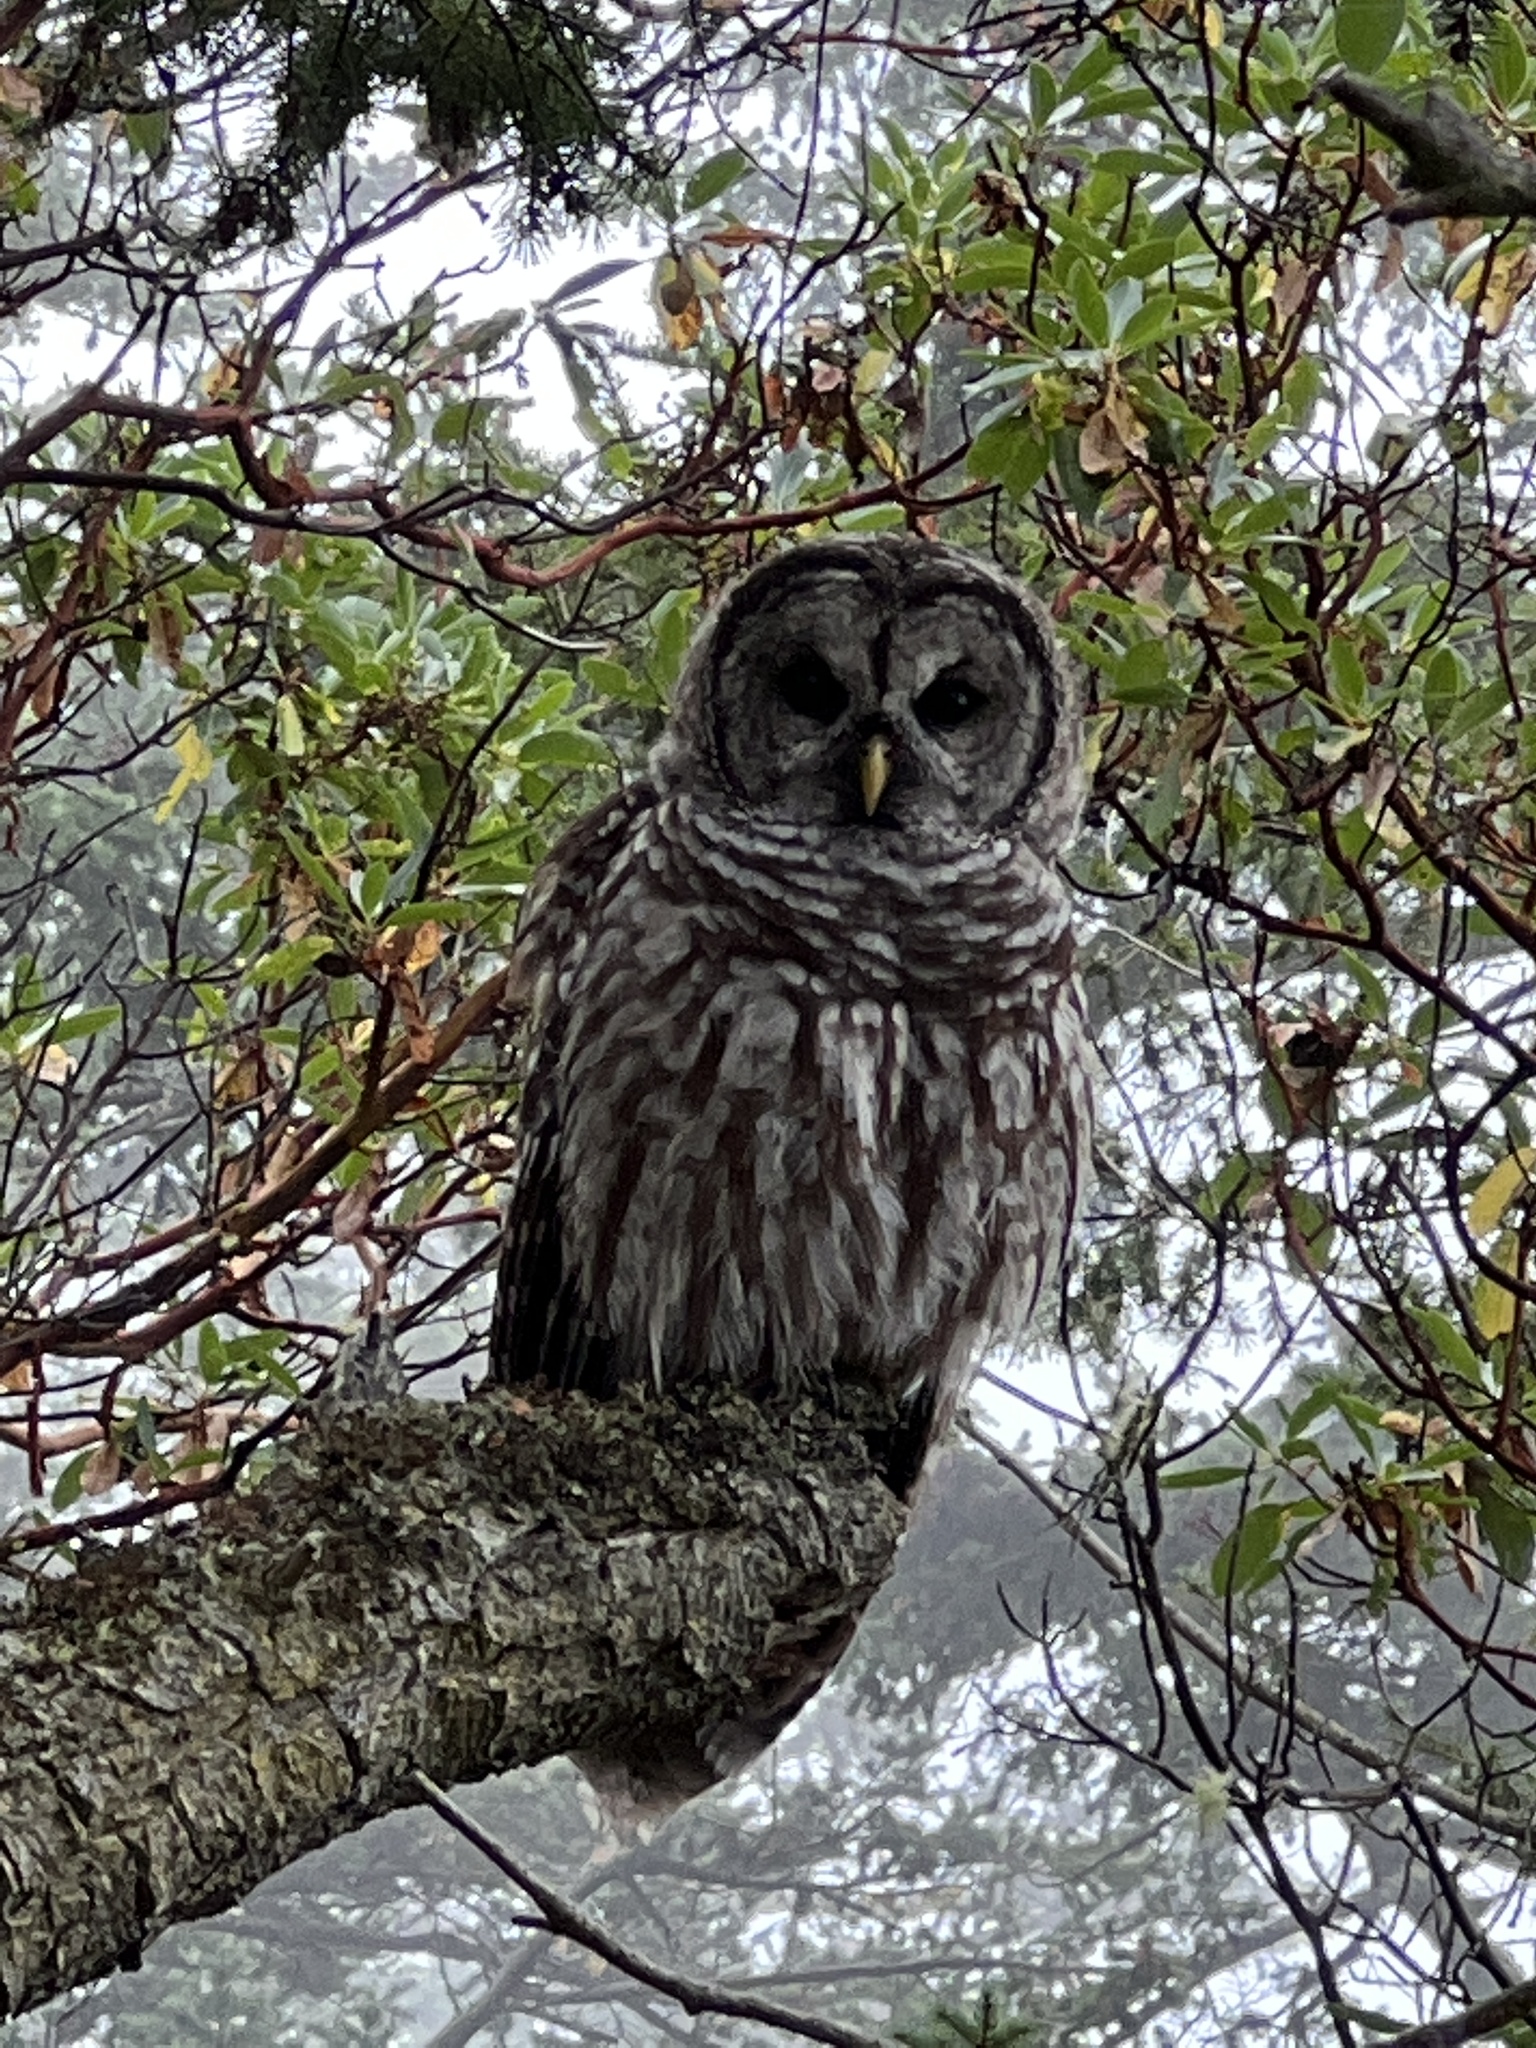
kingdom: Animalia
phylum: Chordata
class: Aves
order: Strigiformes
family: Strigidae
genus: Strix
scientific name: Strix varia
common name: Barred owl
